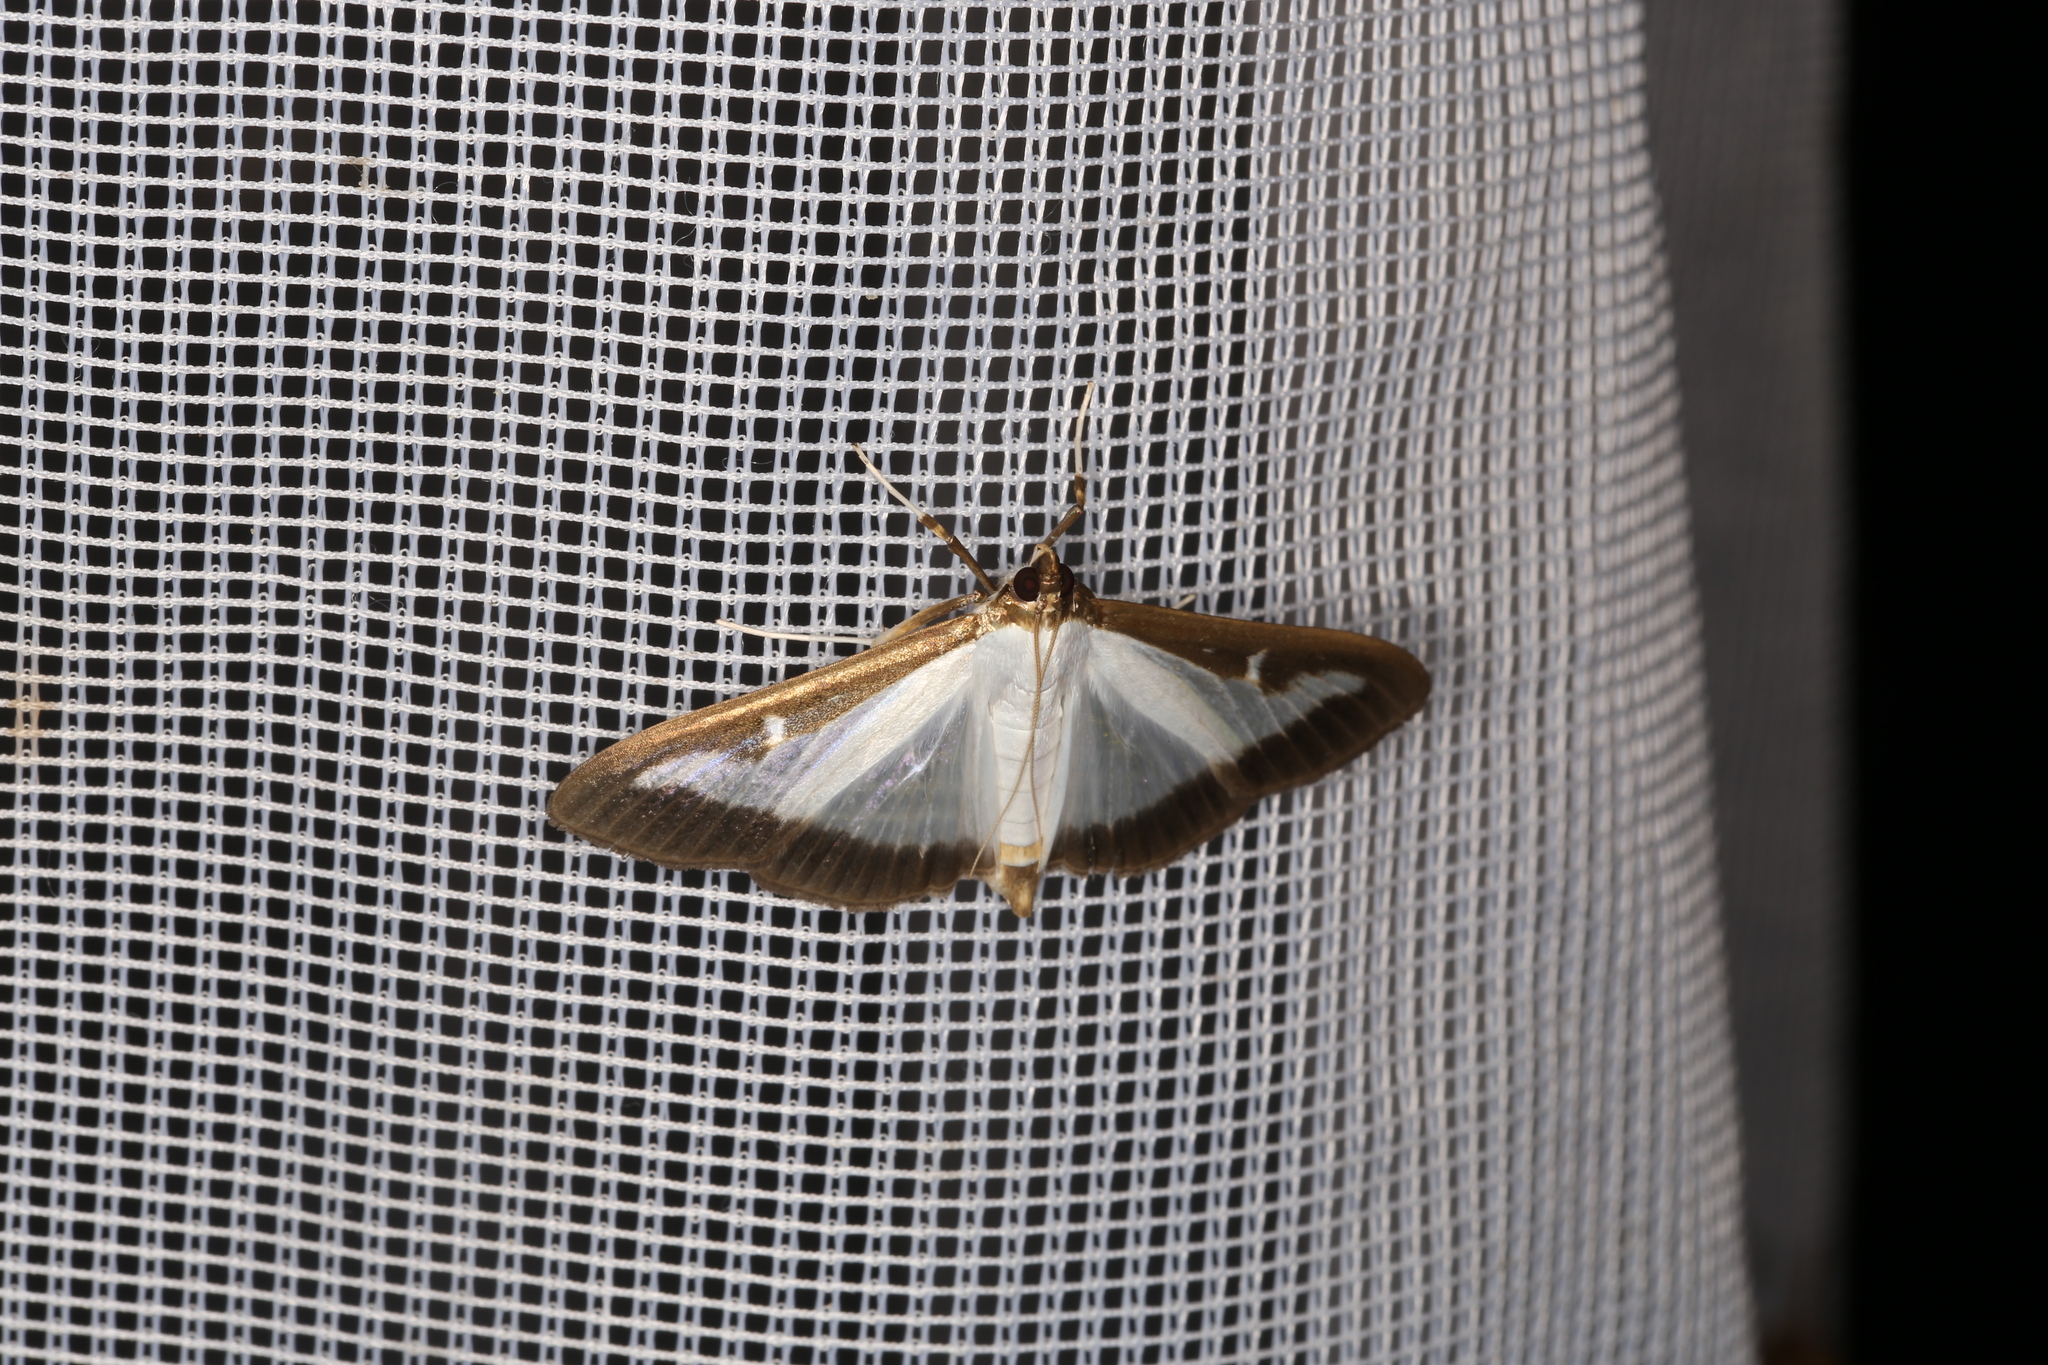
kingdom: Animalia
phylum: Arthropoda
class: Insecta
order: Lepidoptera
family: Crambidae
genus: Cydalima
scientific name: Cydalima perspectalis
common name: Box tree moth
